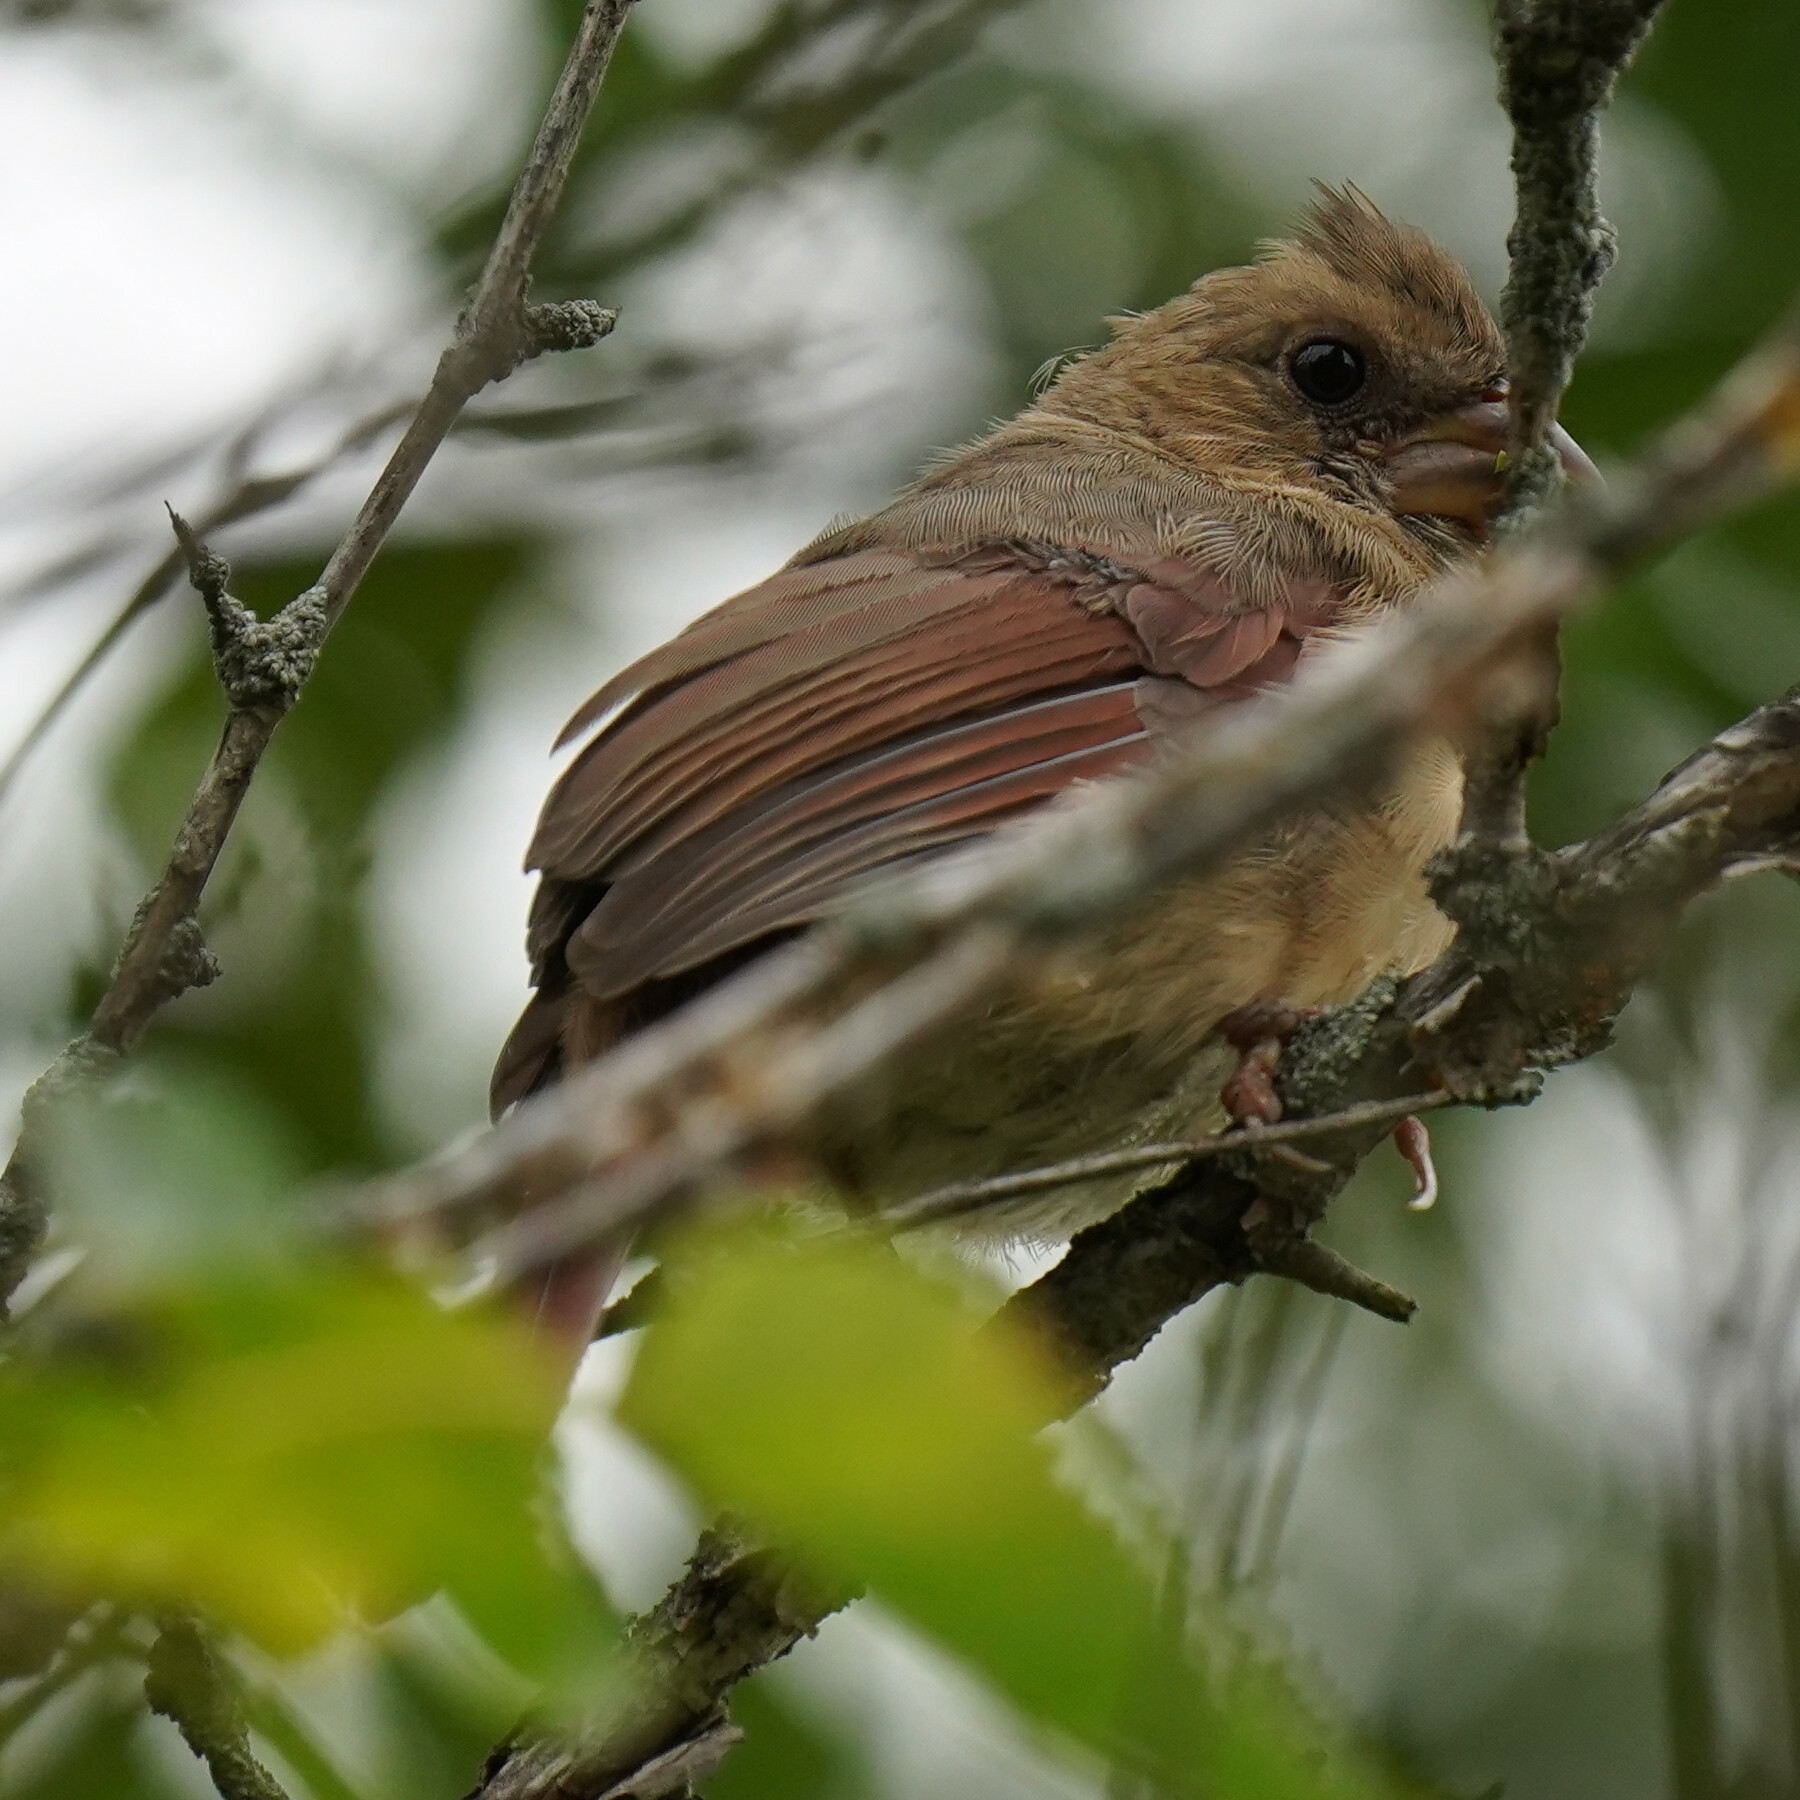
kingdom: Animalia
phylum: Chordata
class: Aves
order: Passeriformes
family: Cardinalidae
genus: Cardinalis
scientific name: Cardinalis cardinalis
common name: Northern cardinal
